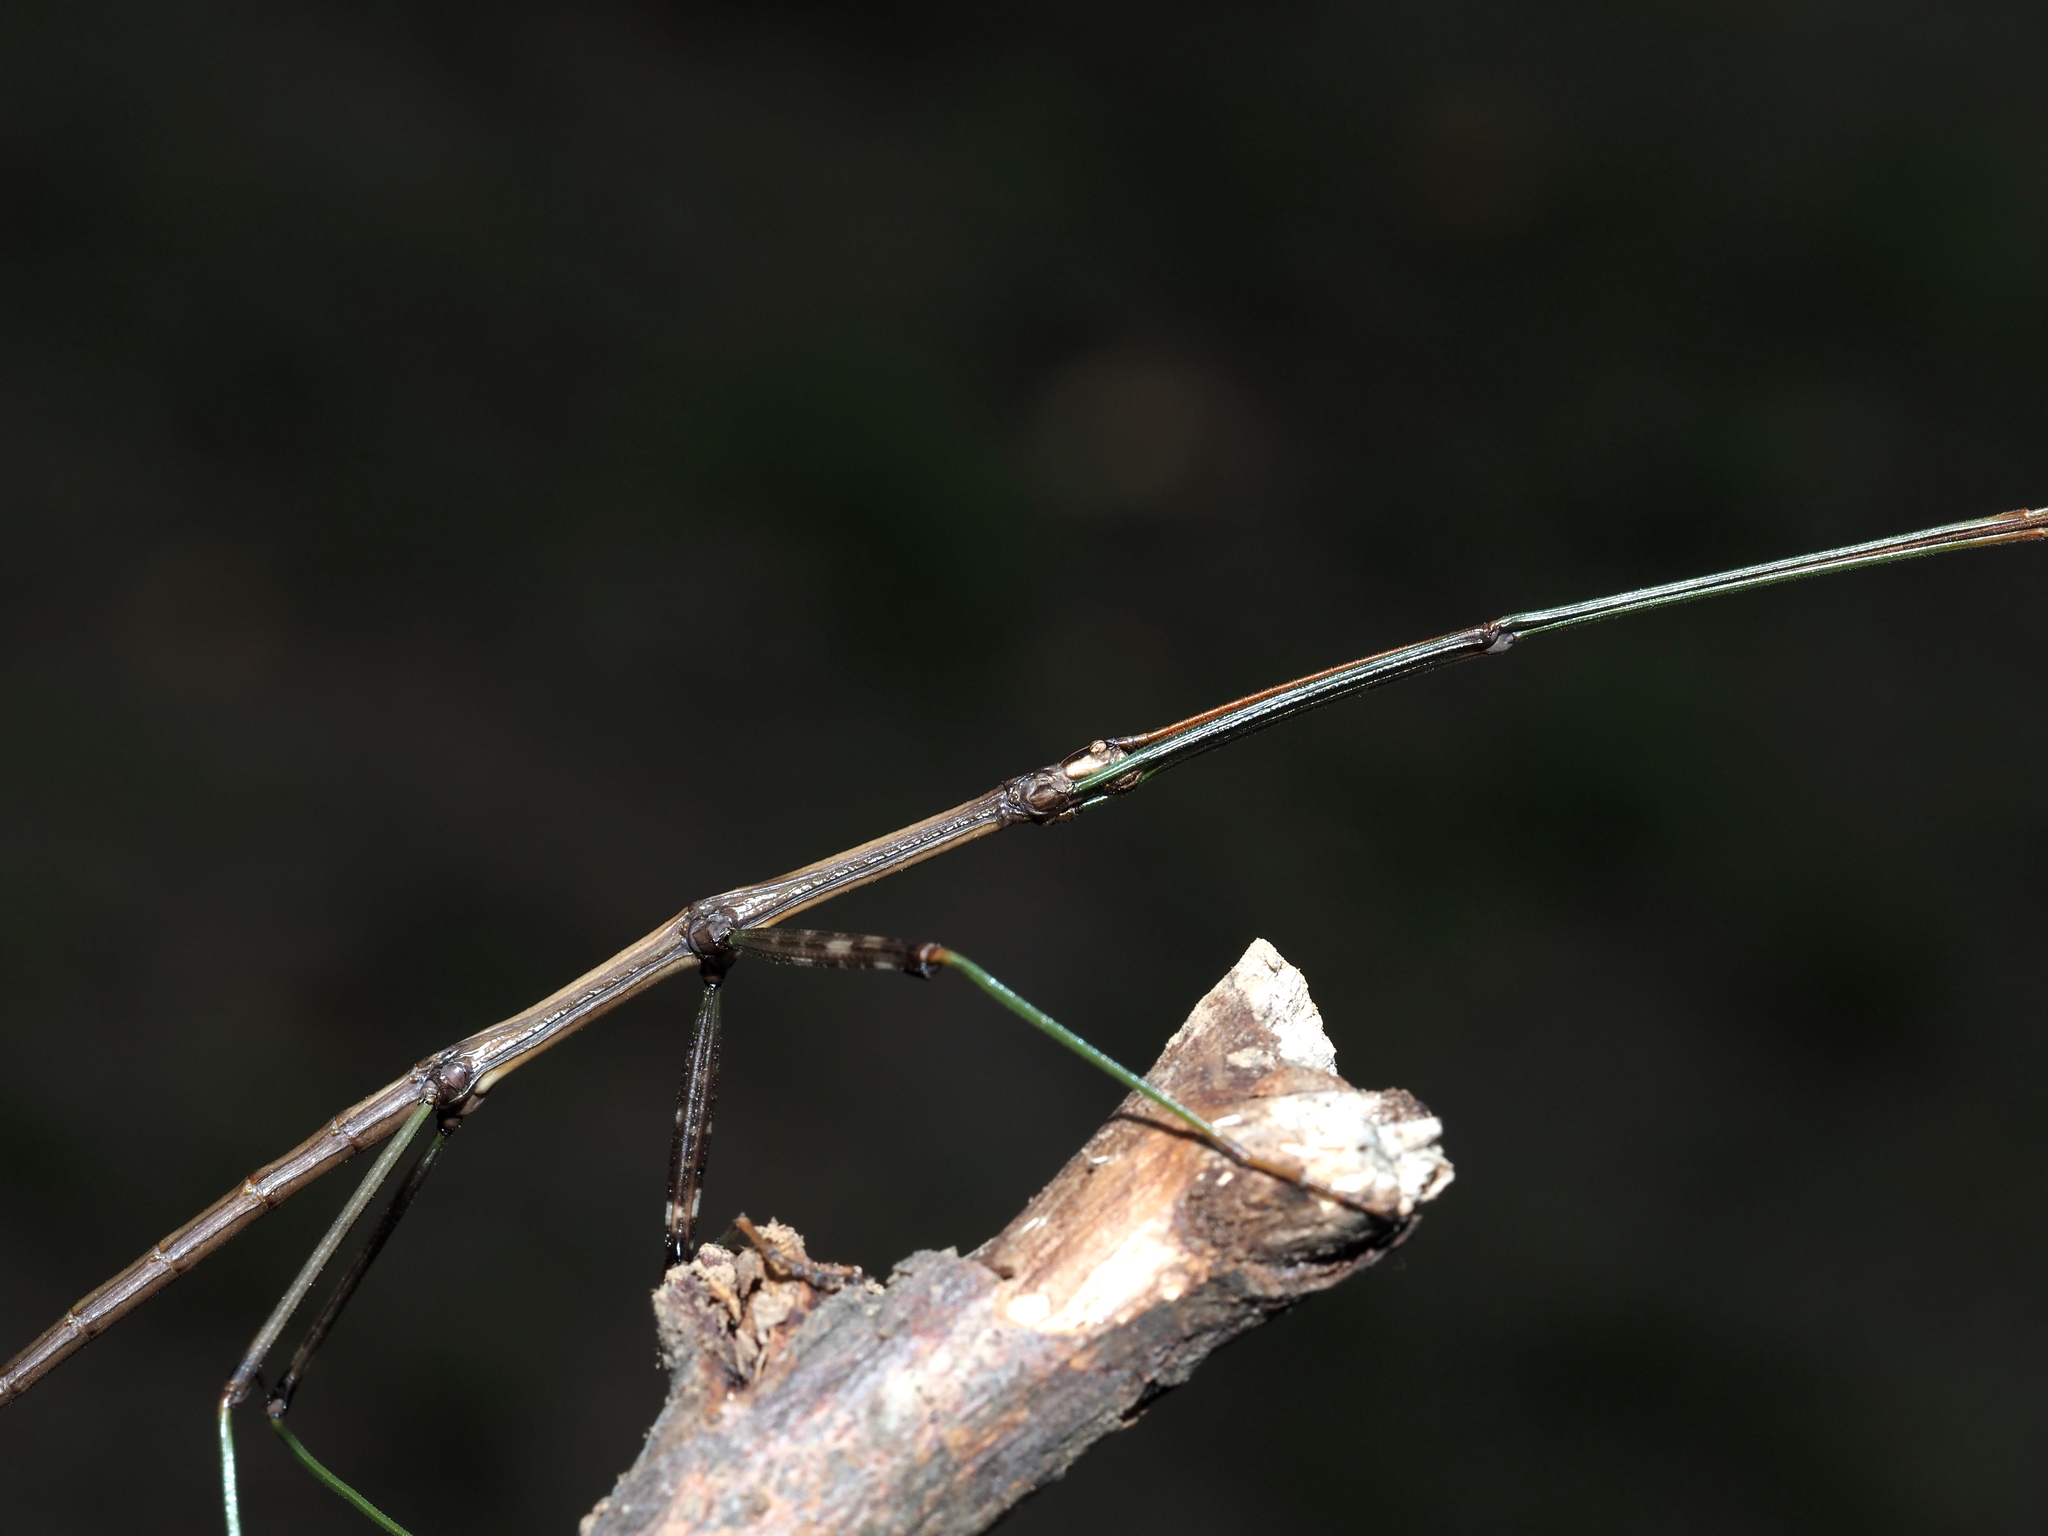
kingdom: Animalia
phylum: Arthropoda
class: Insecta
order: Phasmida
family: Diapheromeridae
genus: Diapheromera
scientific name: Diapheromera femorata
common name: Common american walkingstick
